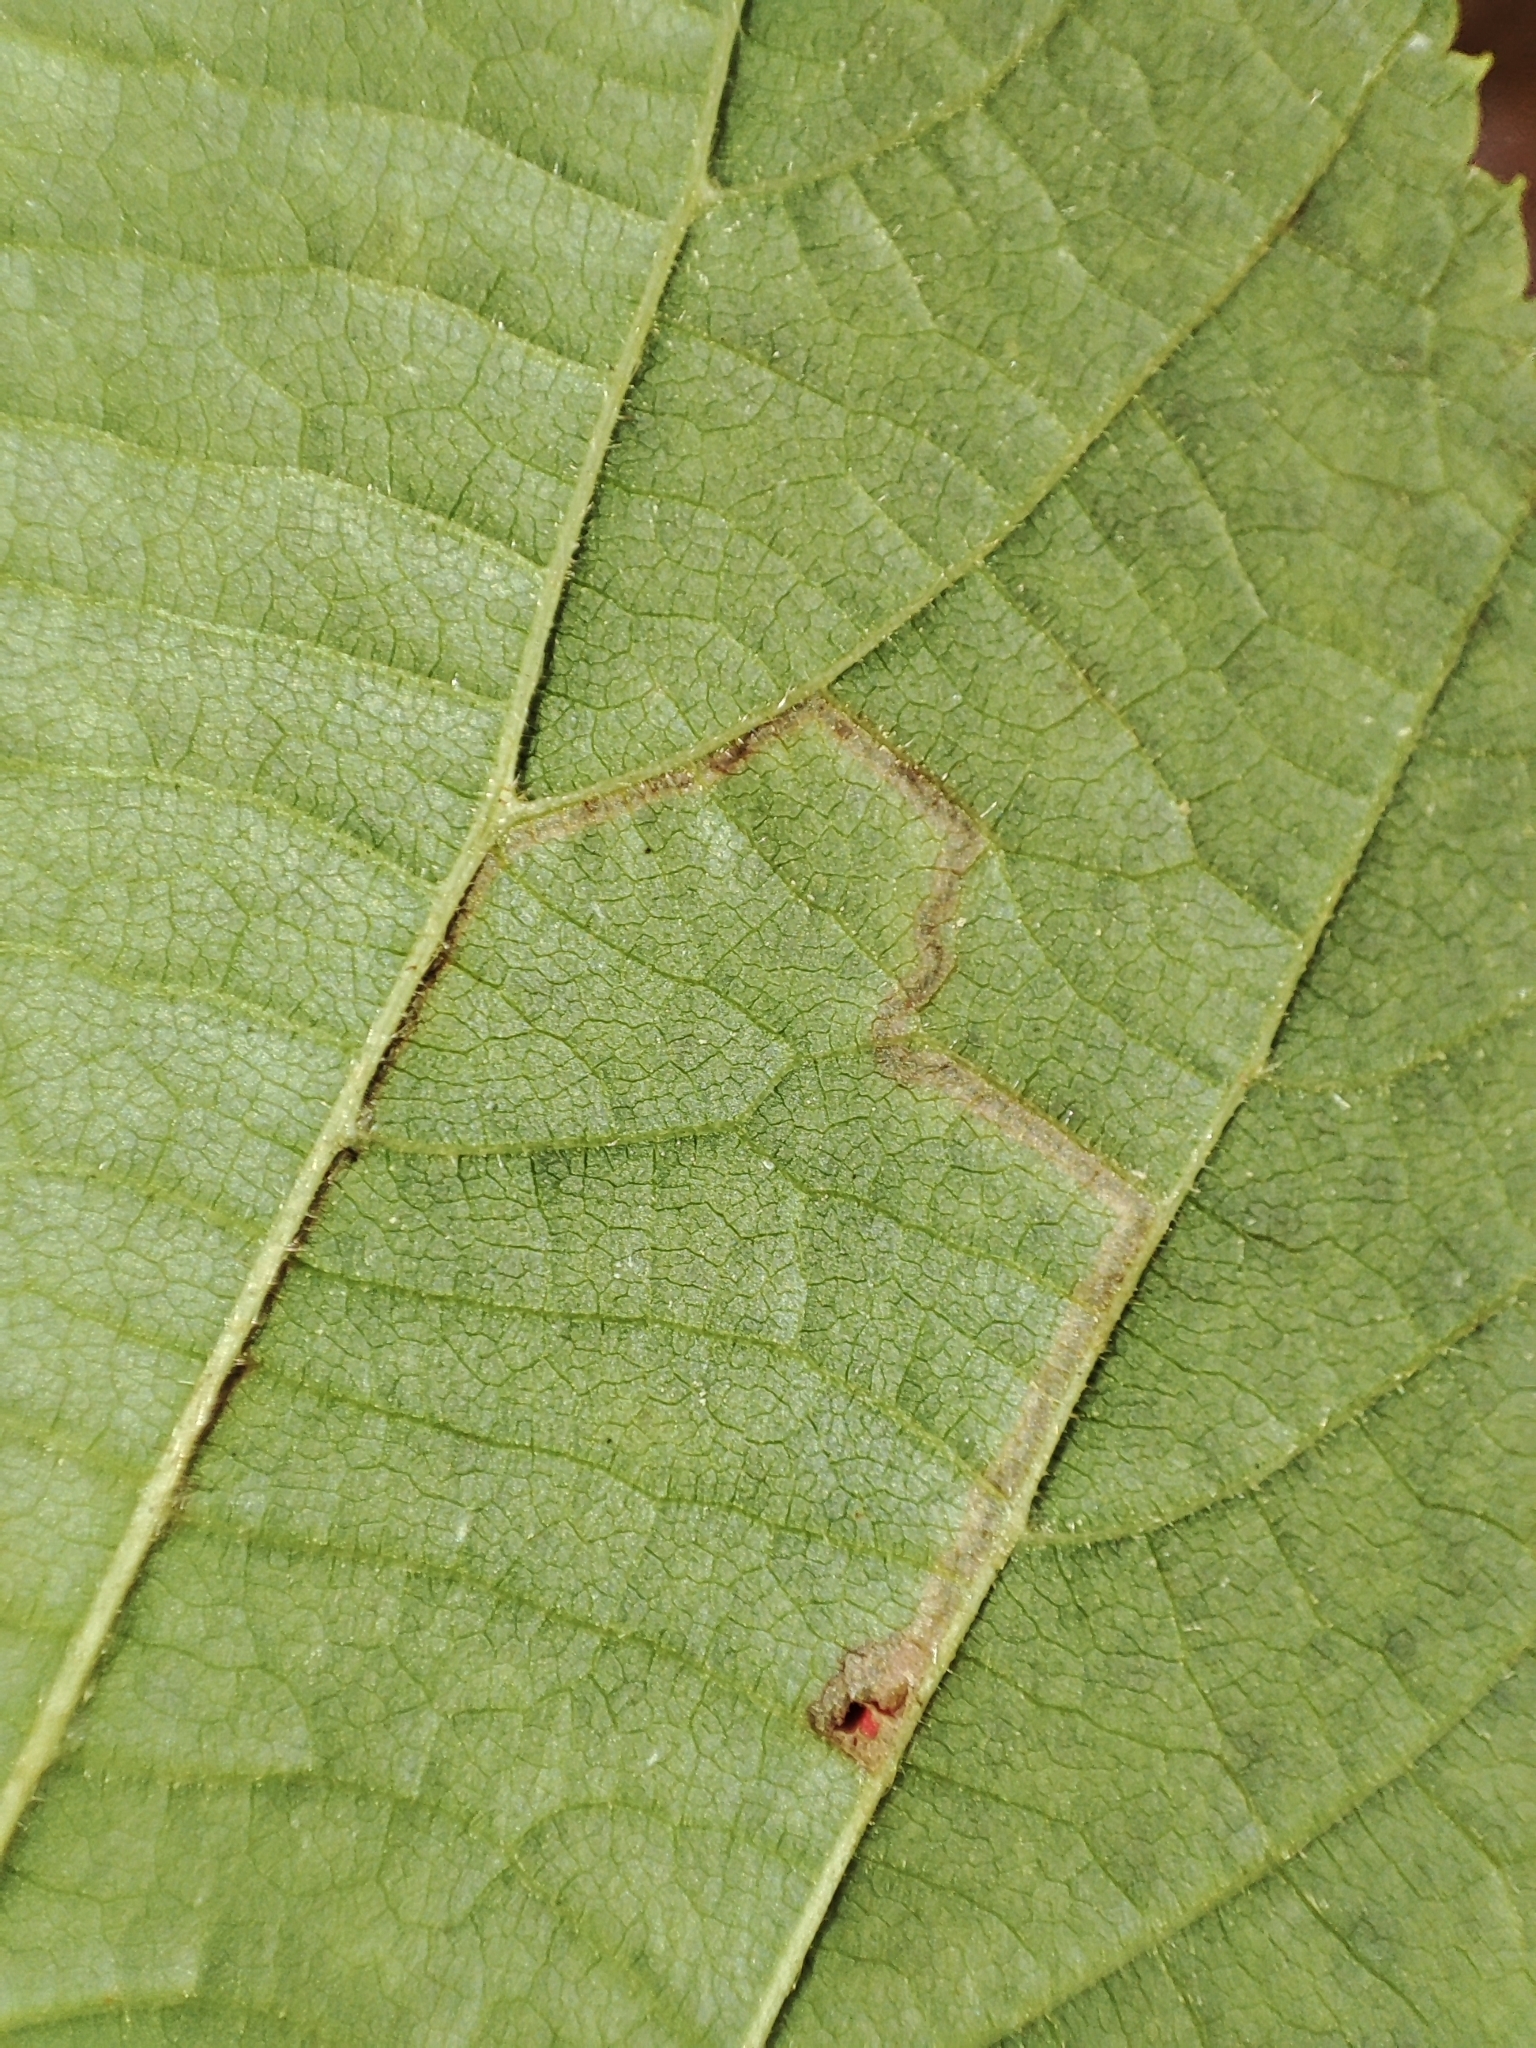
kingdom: Plantae
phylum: Tracheophyta
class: Magnoliopsida
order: Fagales
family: Betulaceae
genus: Corylus
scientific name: Corylus avellana
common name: European hazel
